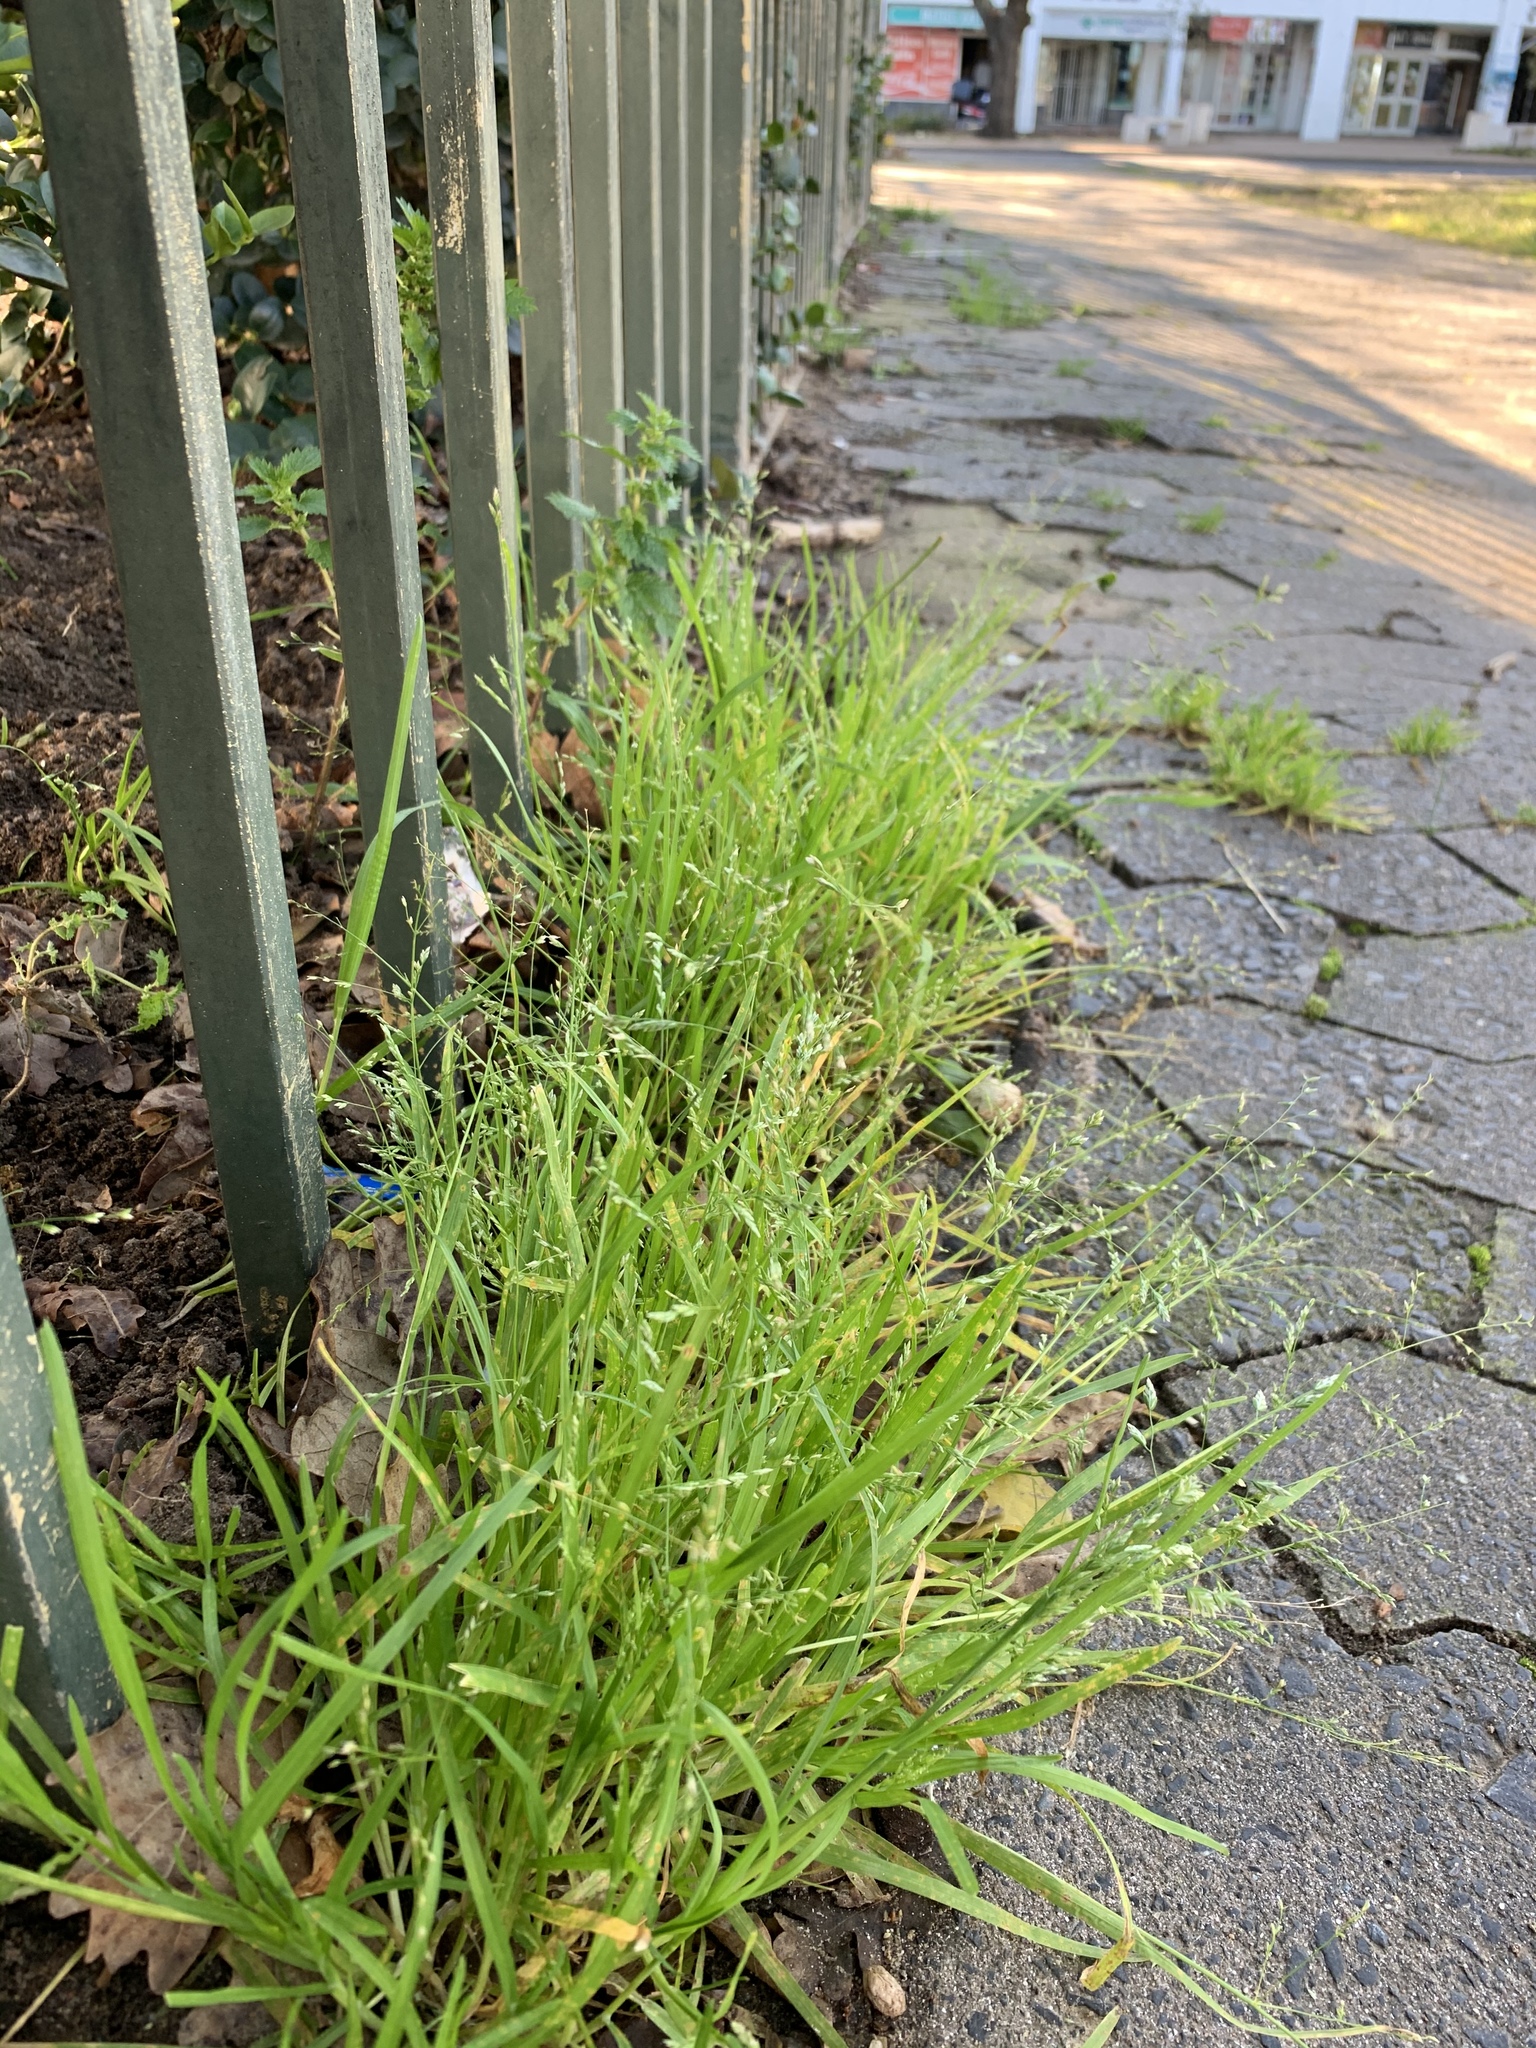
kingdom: Plantae
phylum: Tracheophyta
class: Liliopsida
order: Poales
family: Poaceae
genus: Poa
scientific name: Poa annua
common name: Annual bluegrass
